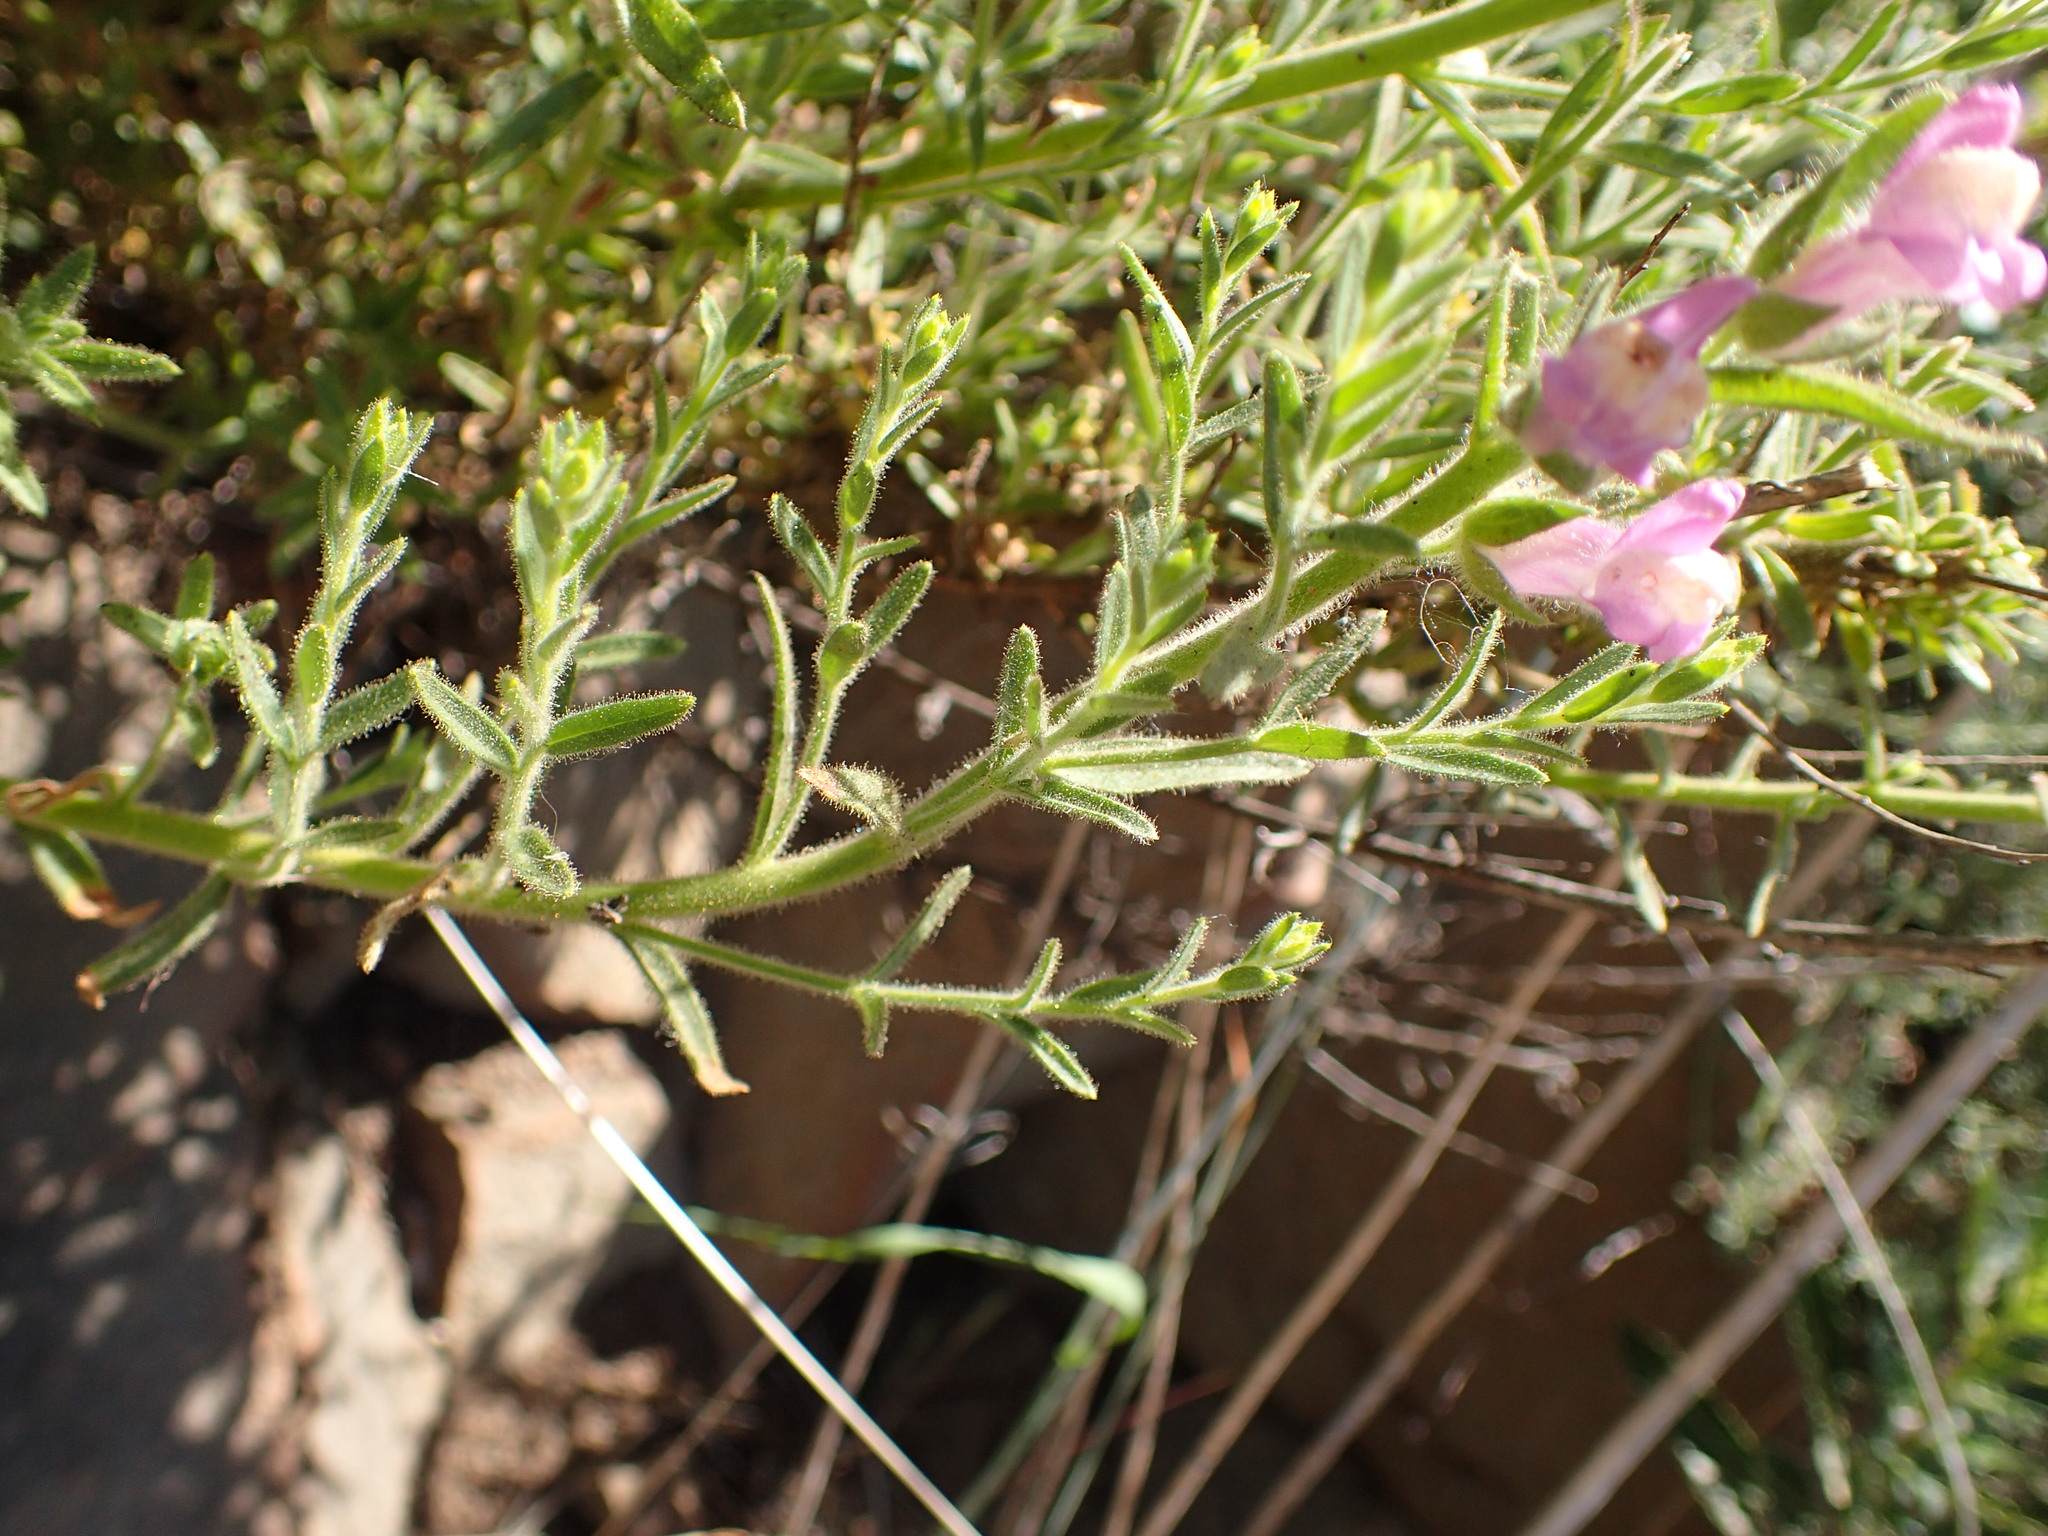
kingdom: Plantae
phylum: Tracheophyta
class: Magnoliopsida
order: Lamiales
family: Plantaginaceae
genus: Sairocarpus
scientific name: Sairocarpus multiflorus
